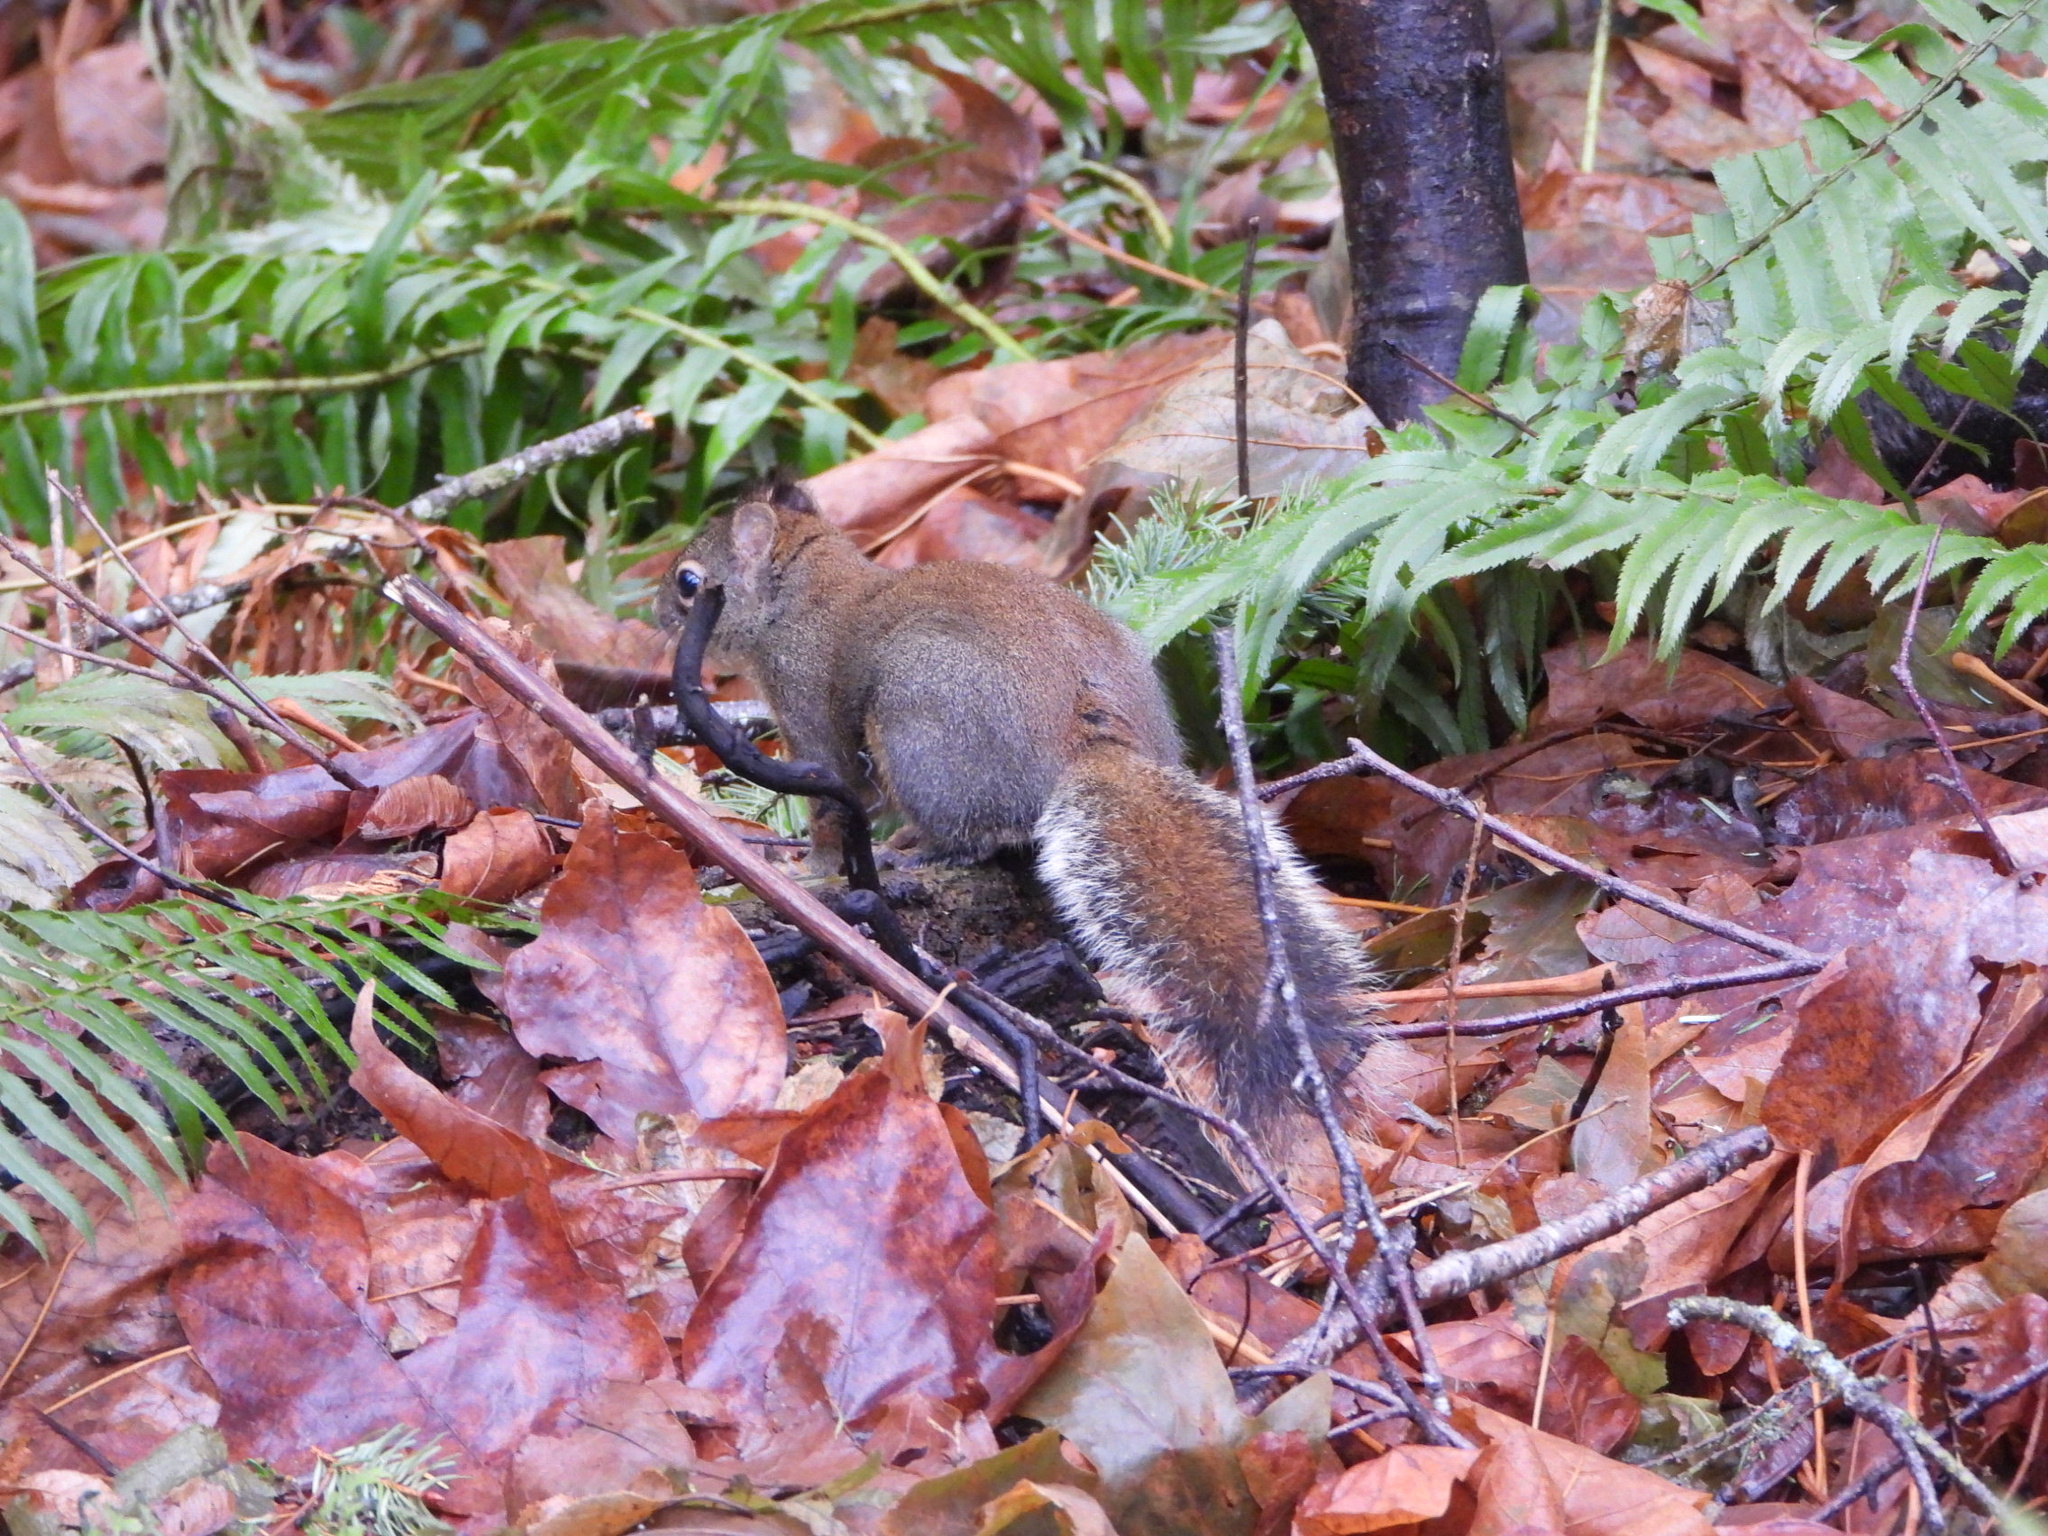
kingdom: Animalia
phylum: Chordata
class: Mammalia
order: Rodentia
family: Sciuridae
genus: Tamiasciurus
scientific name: Tamiasciurus douglasii
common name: Douglas's squirrel
